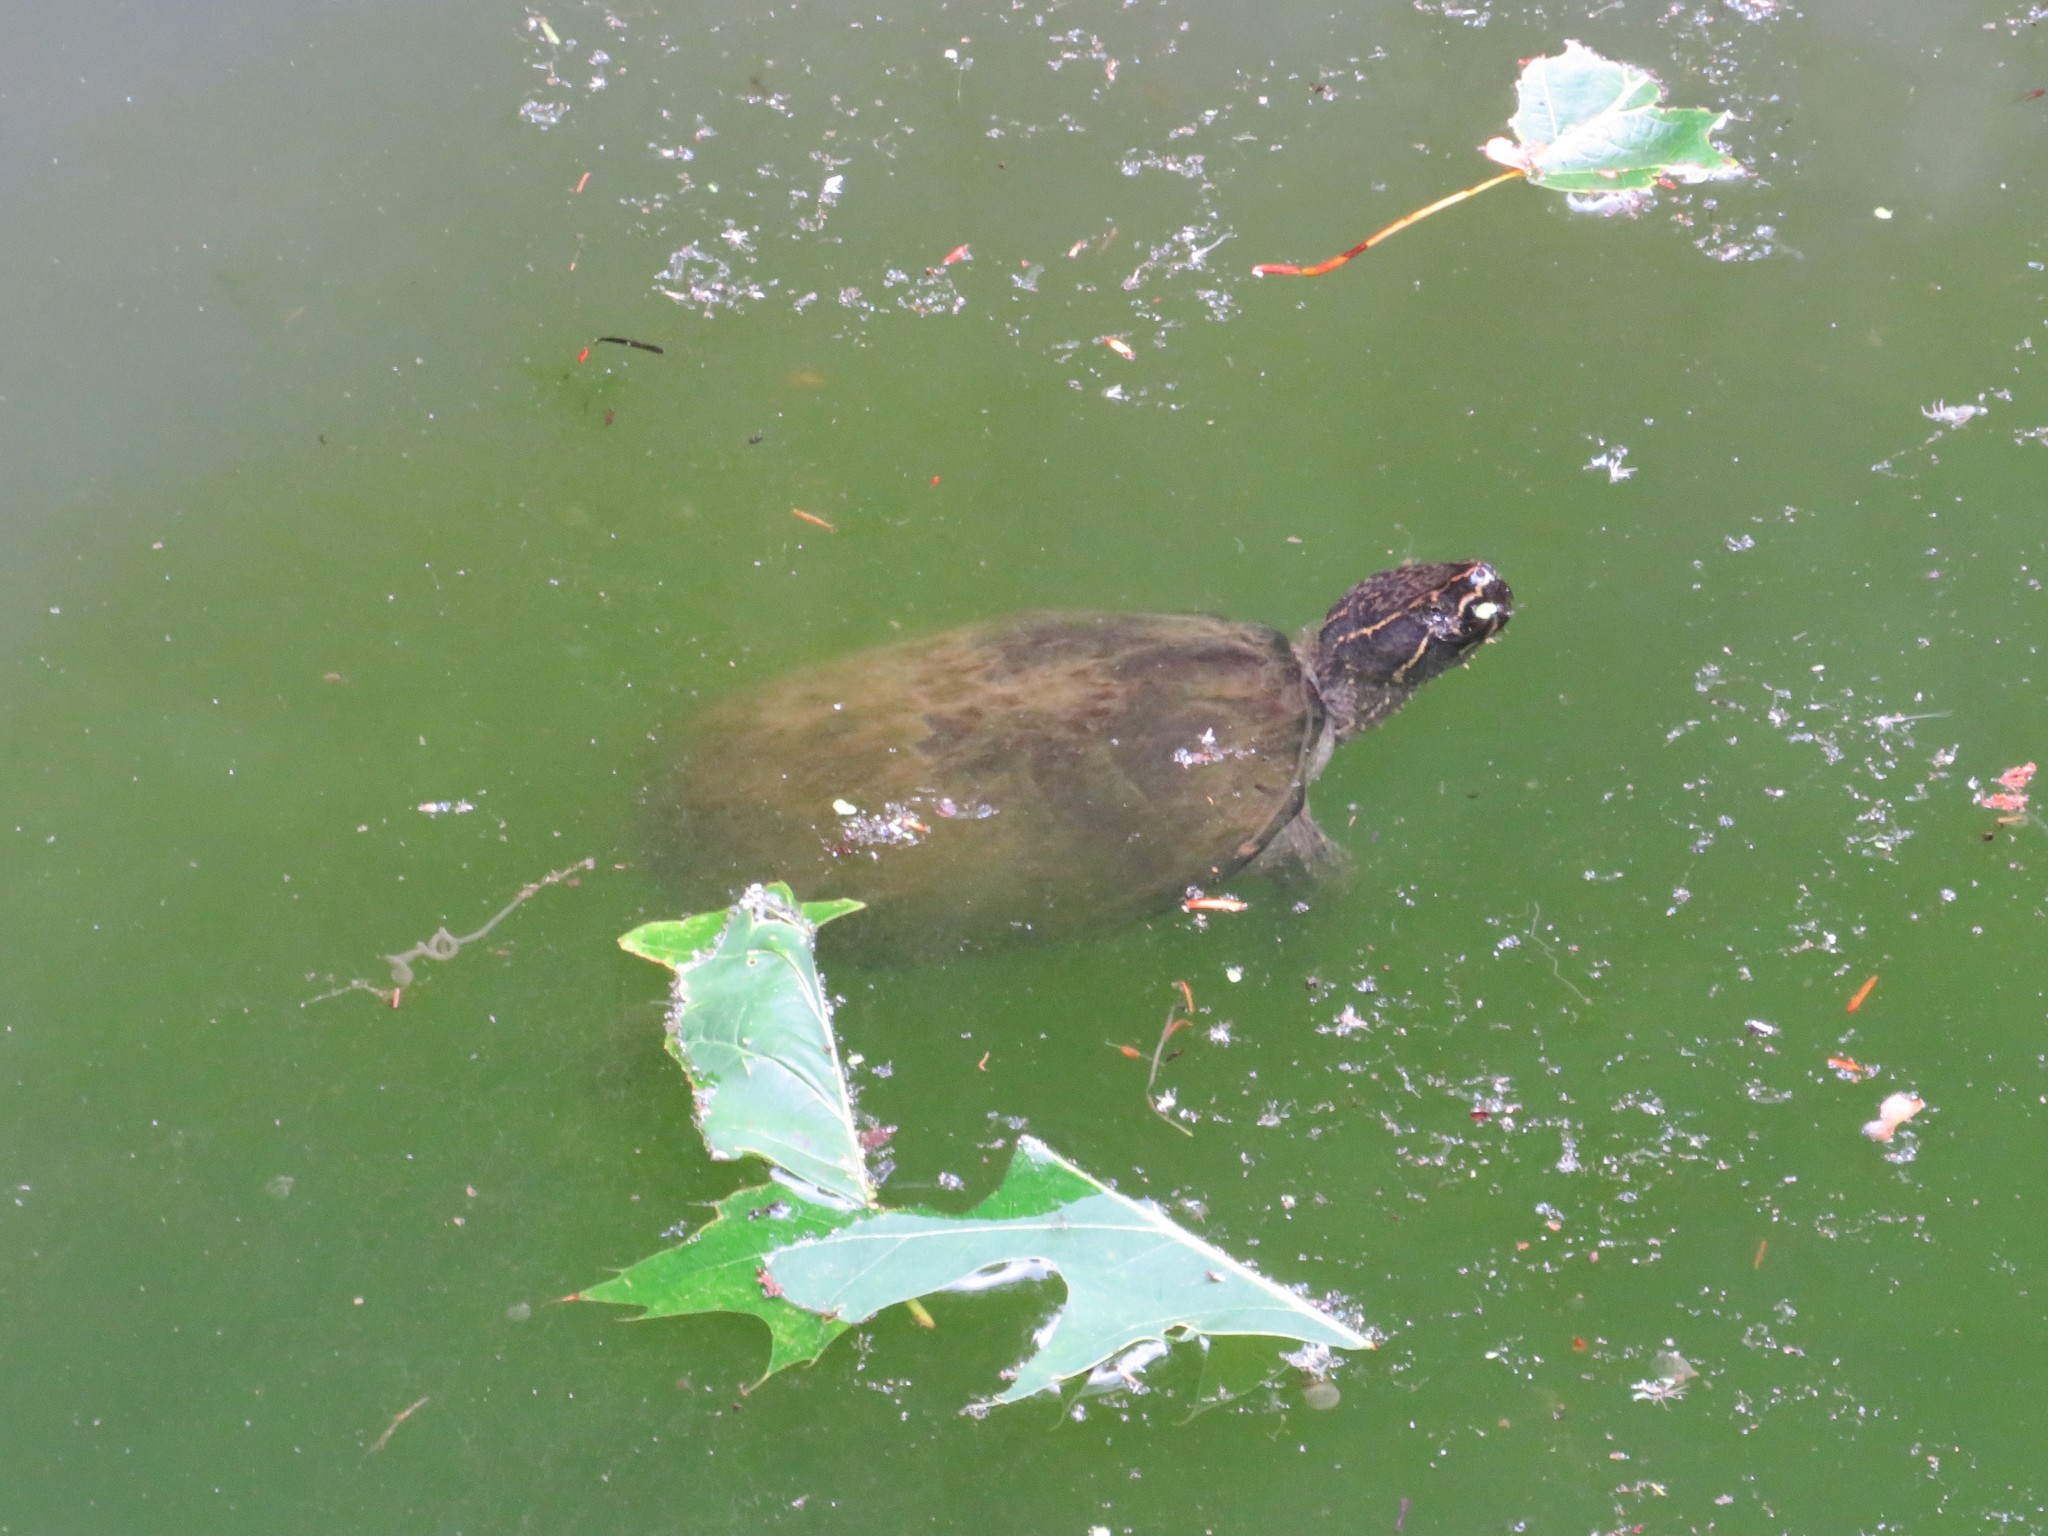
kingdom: Animalia
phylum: Chordata
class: Testudines
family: Kinosternidae
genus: Sternotherus
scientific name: Sternotherus odoratus
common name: Common musk turtle
